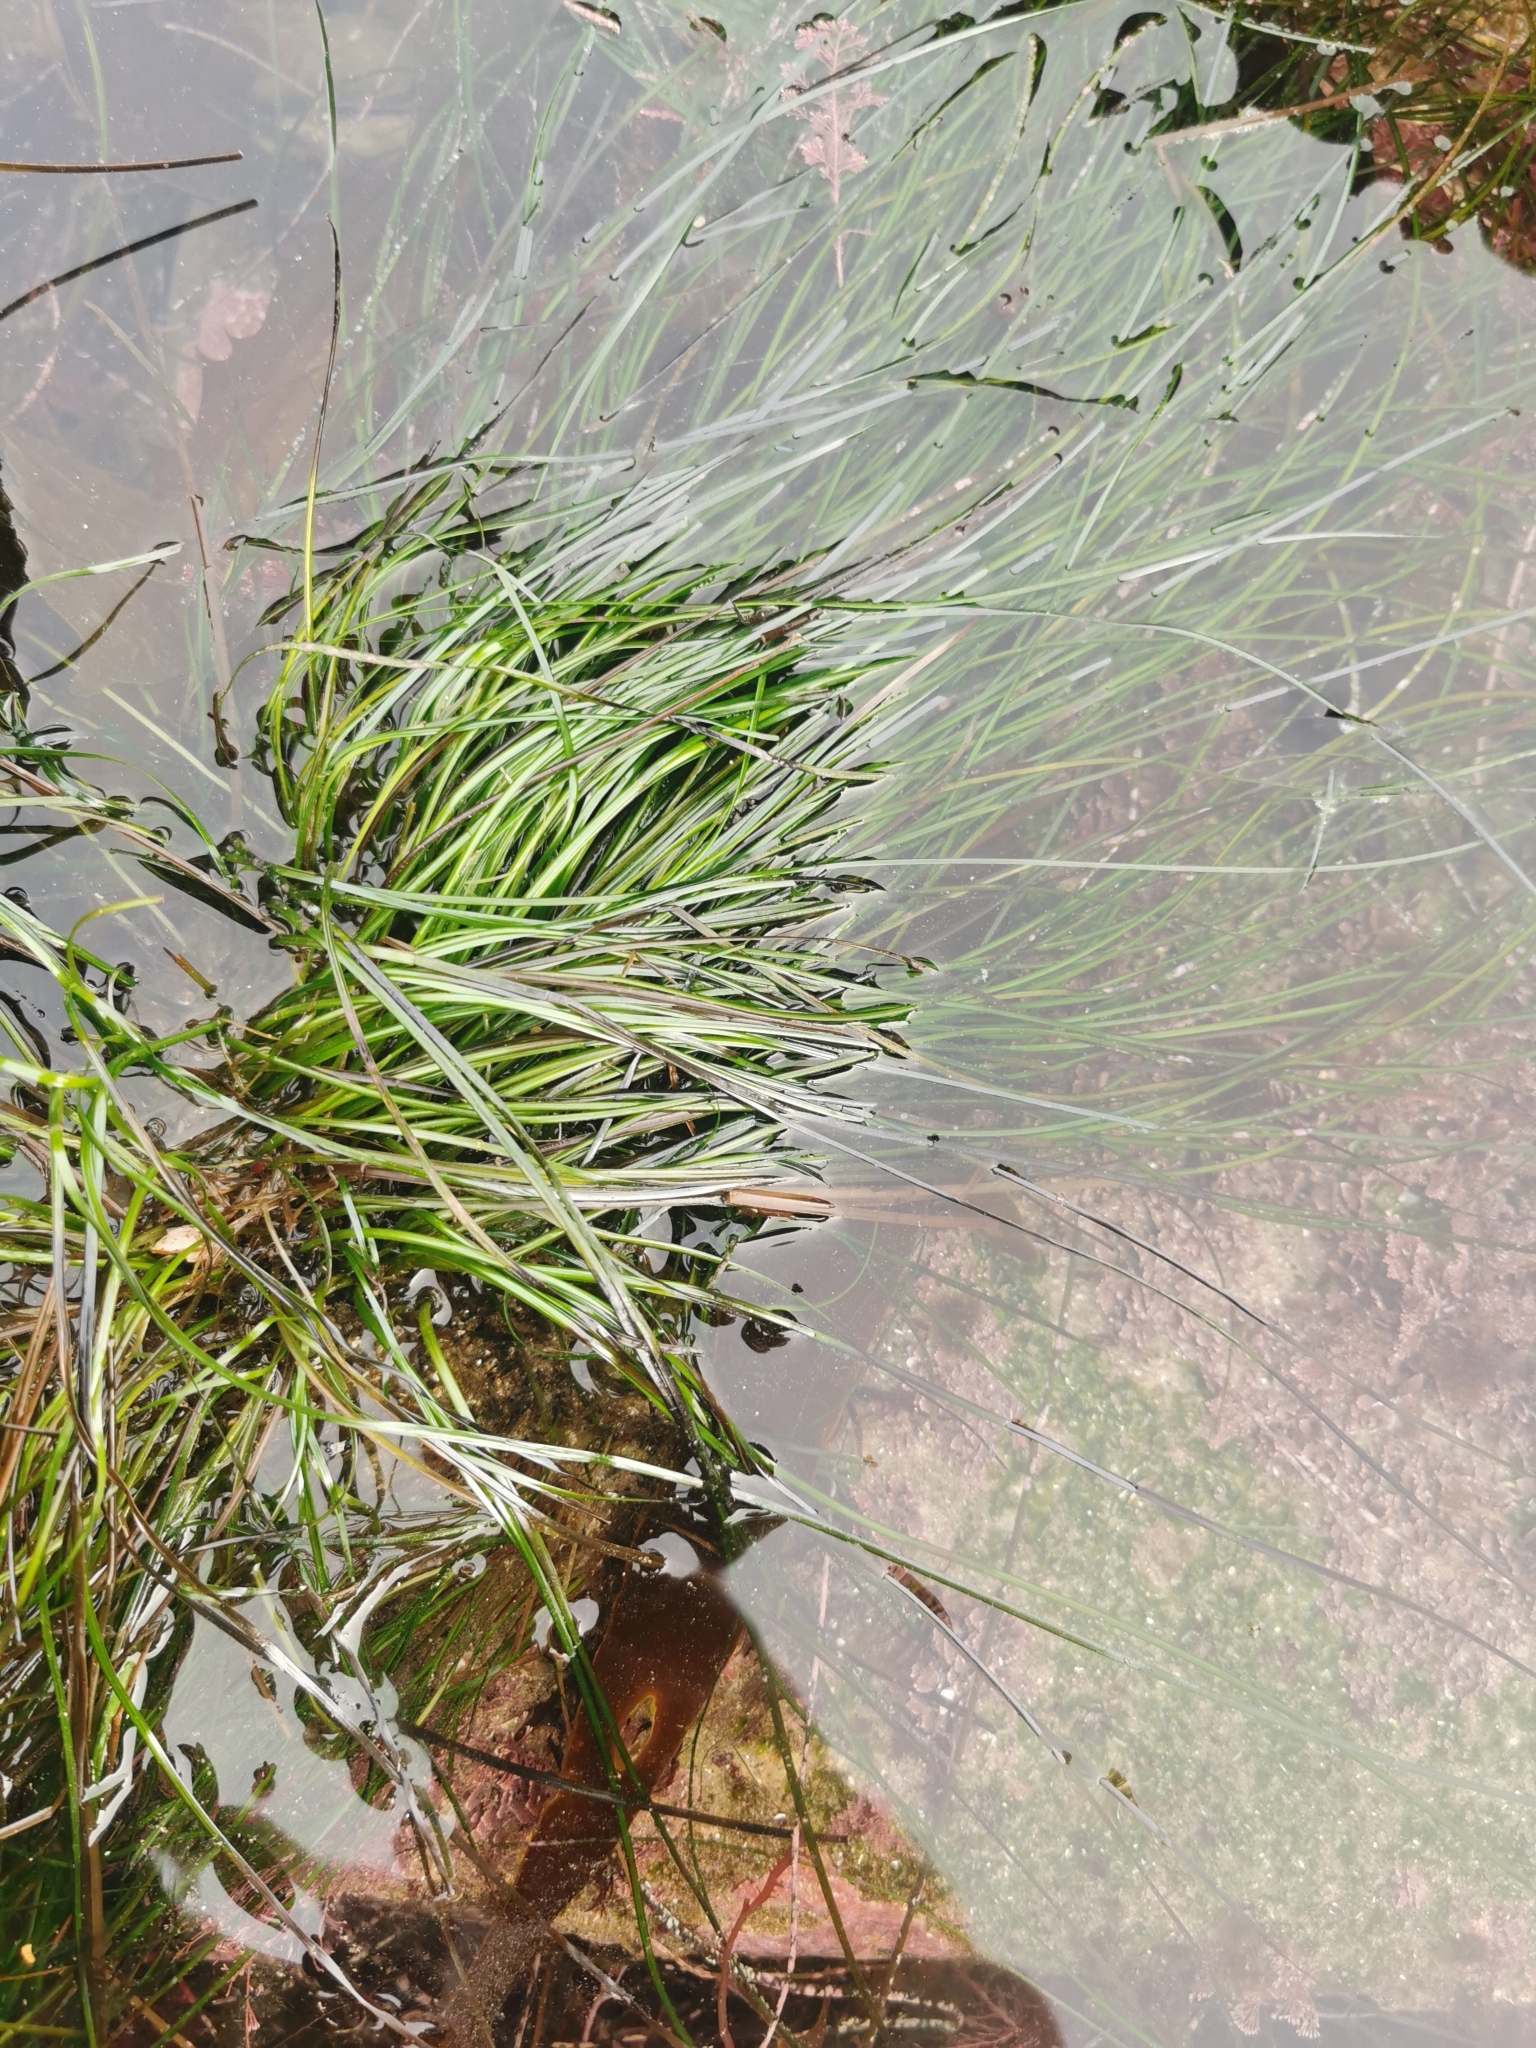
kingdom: Plantae
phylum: Tracheophyta
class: Liliopsida
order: Alismatales
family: Zosteraceae
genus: Phyllospadix
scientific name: Phyllospadix torreyi
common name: Surfgrass
